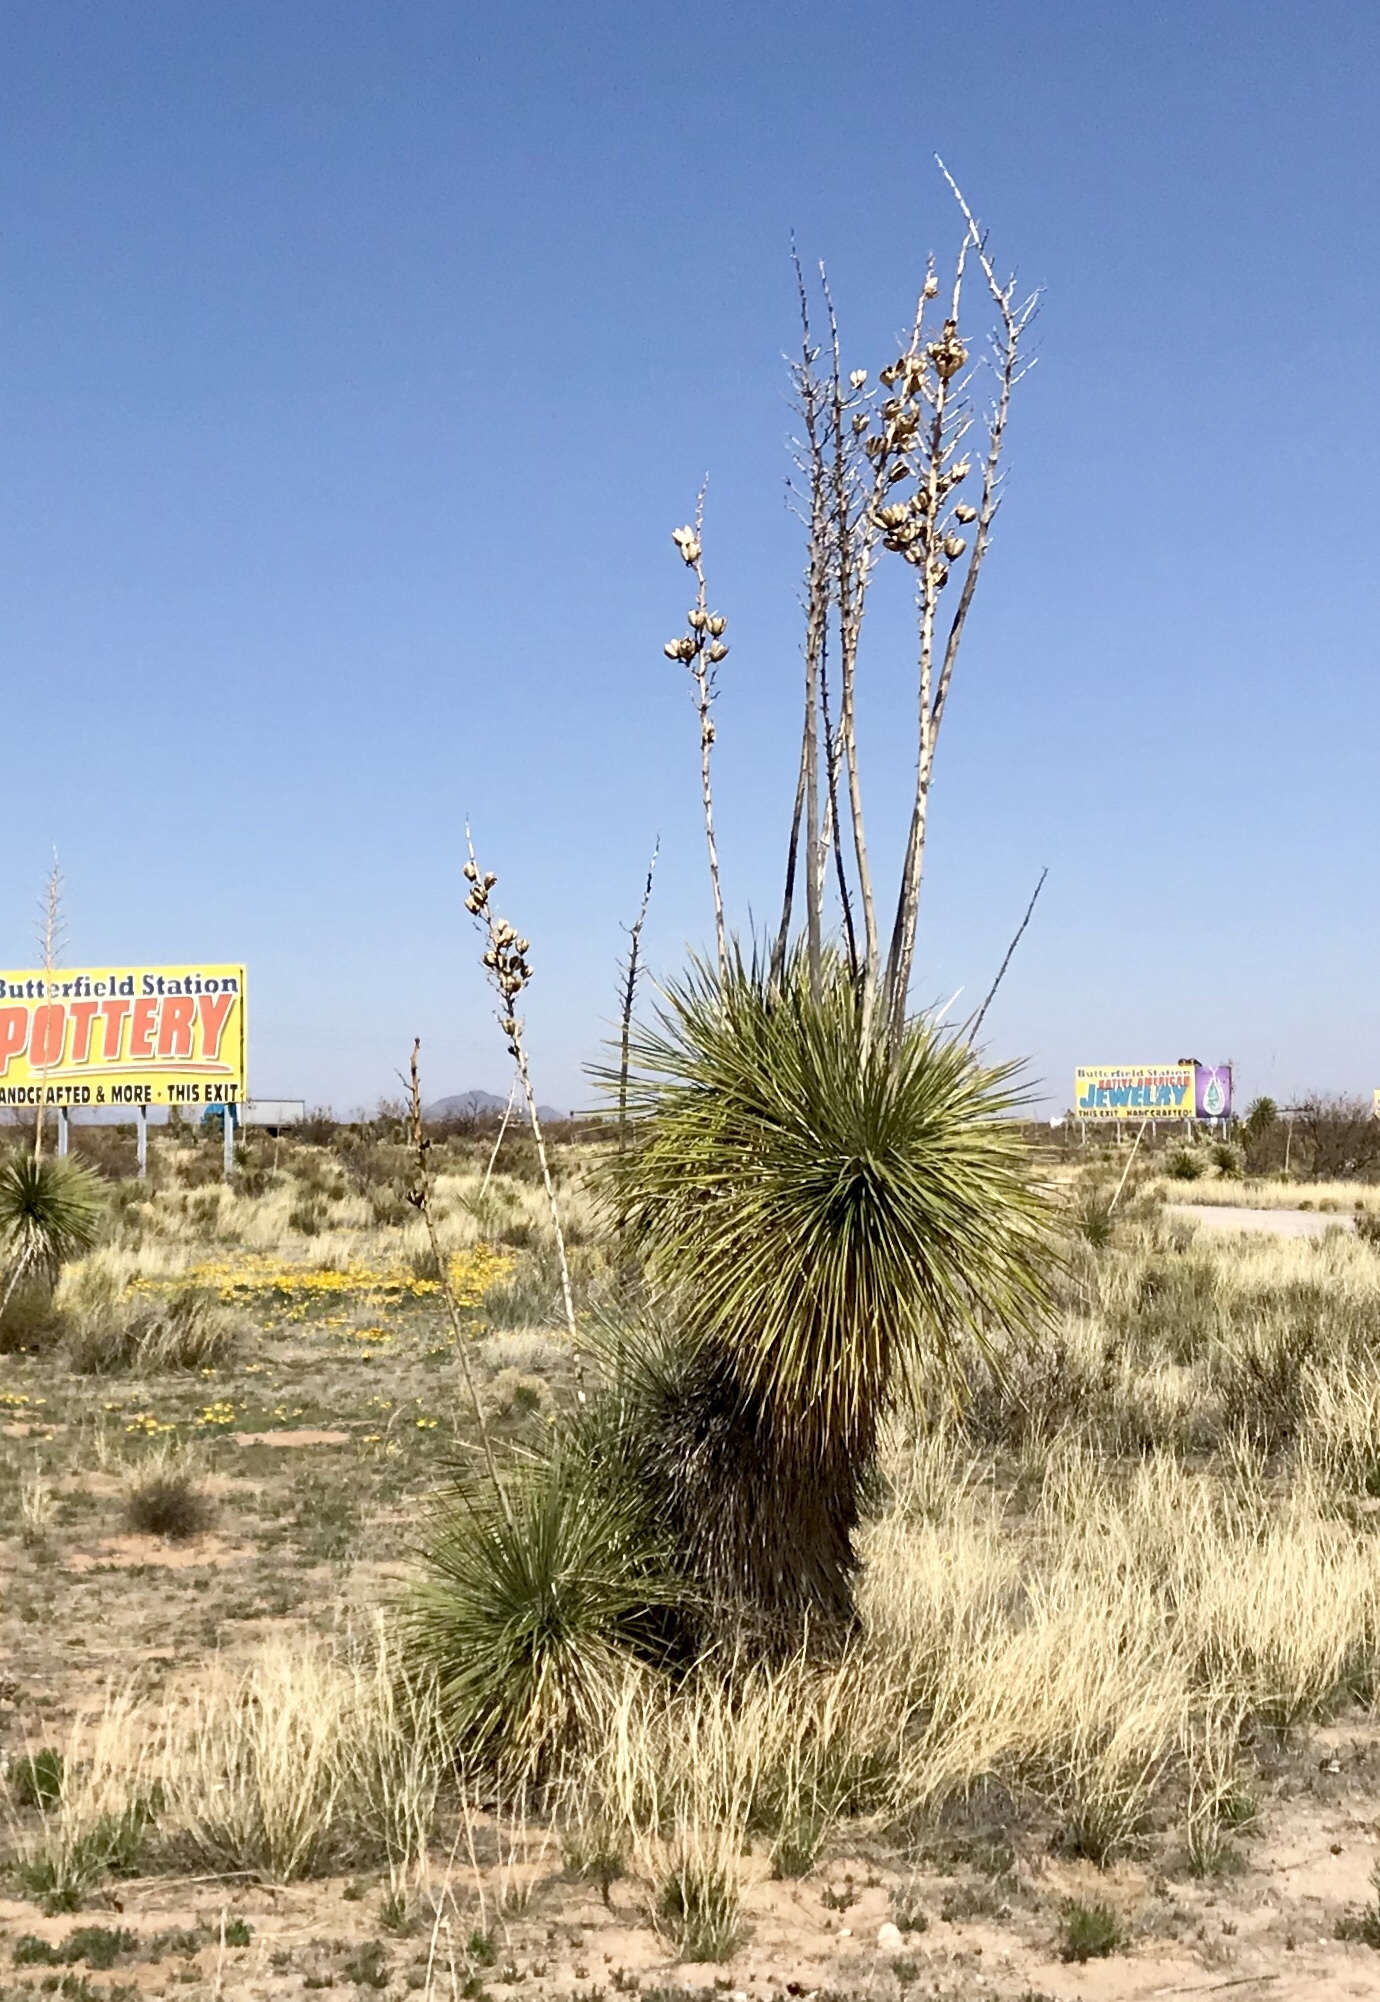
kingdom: Plantae
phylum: Tracheophyta
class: Liliopsida
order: Asparagales
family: Asparagaceae
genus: Yucca
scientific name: Yucca elata
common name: Palmella
